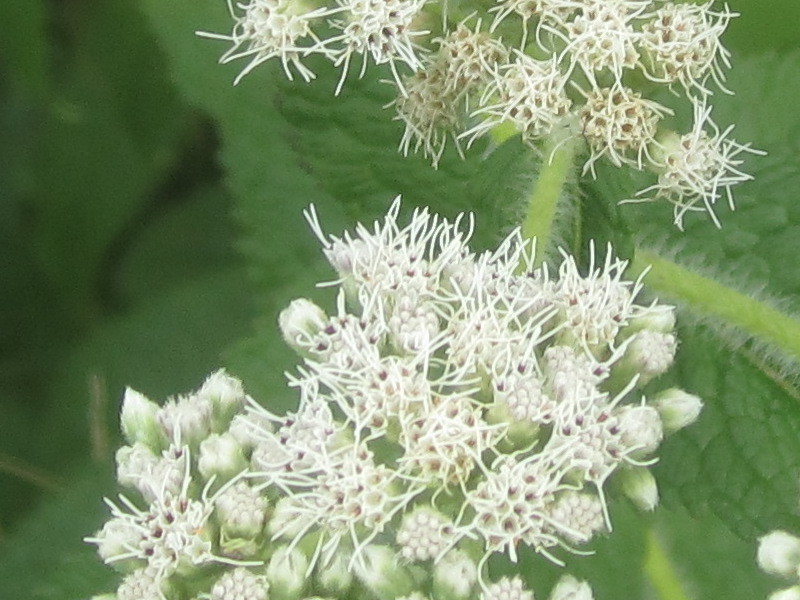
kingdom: Plantae
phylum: Tracheophyta
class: Magnoliopsida
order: Asterales
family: Asteraceae
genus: Eupatorium
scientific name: Eupatorium perfoliatum
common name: Boneset
